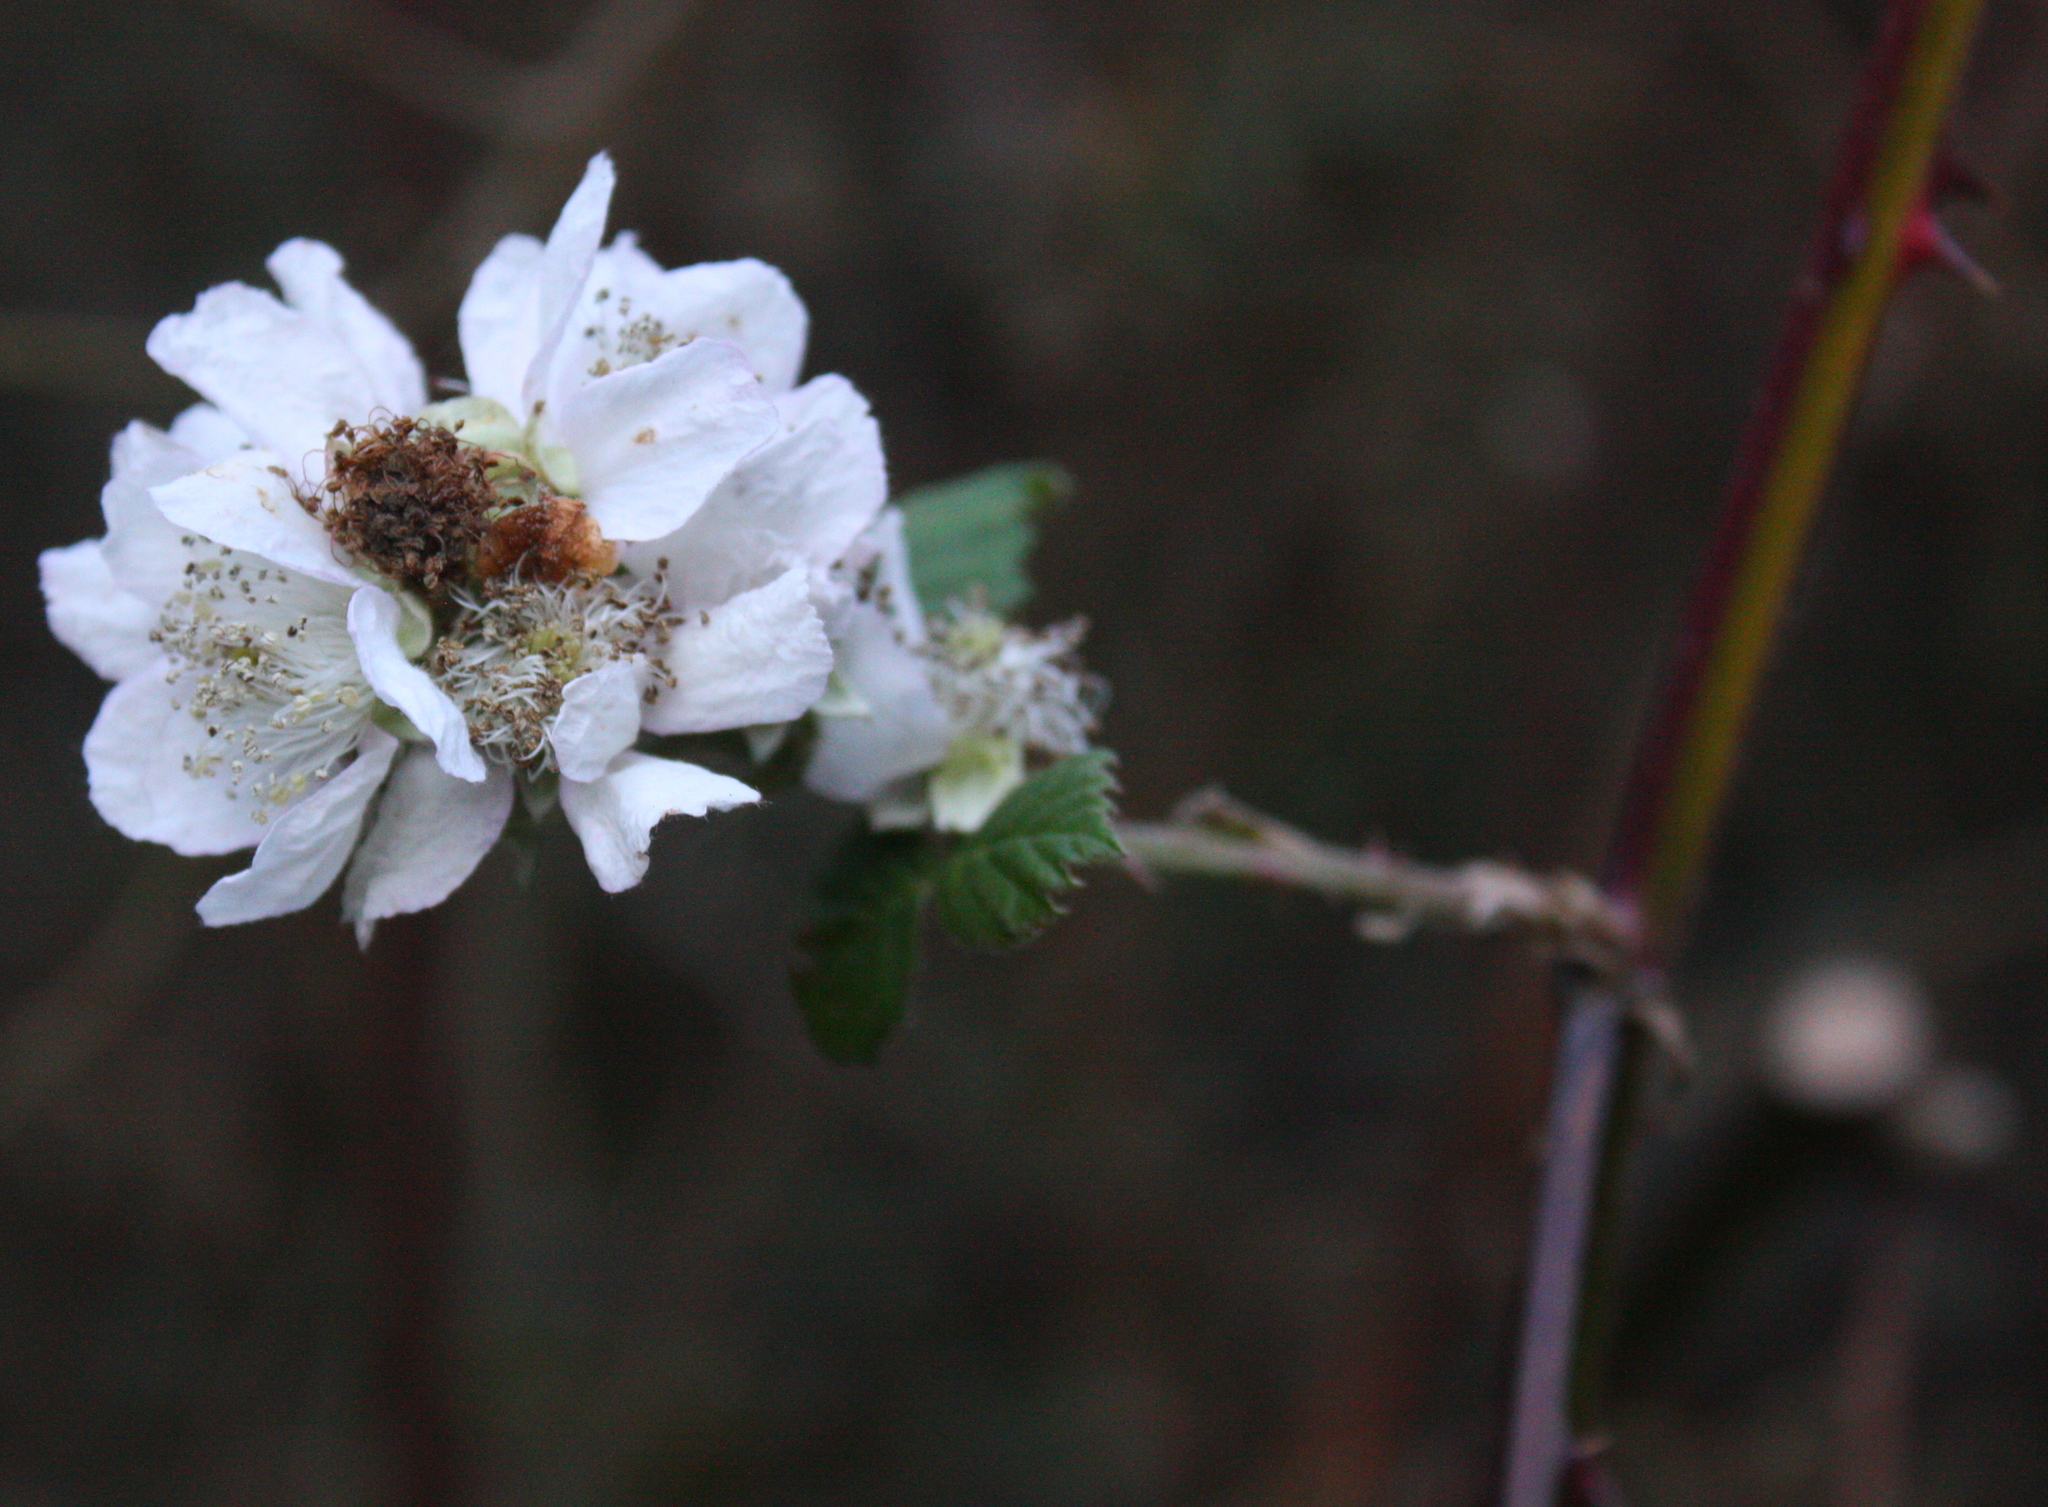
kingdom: Plantae
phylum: Tracheophyta
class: Magnoliopsida
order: Rosales
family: Rosaceae
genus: Rubus
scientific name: Rubus armeniacus
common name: Himalayan blackberry
